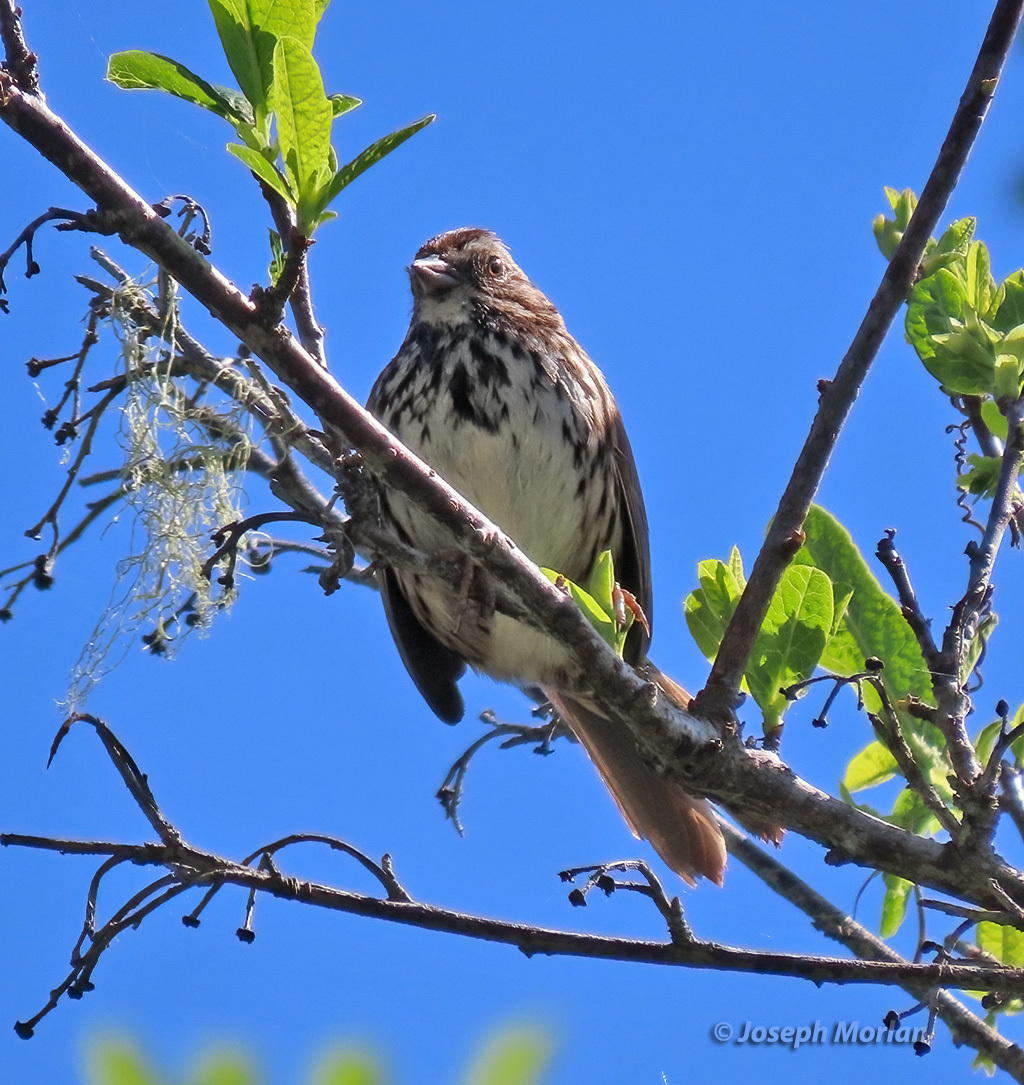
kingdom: Animalia
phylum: Chordata
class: Aves
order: Passeriformes
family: Passerellidae
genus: Melospiza
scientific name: Melospiza melodia
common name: Song sparrow
